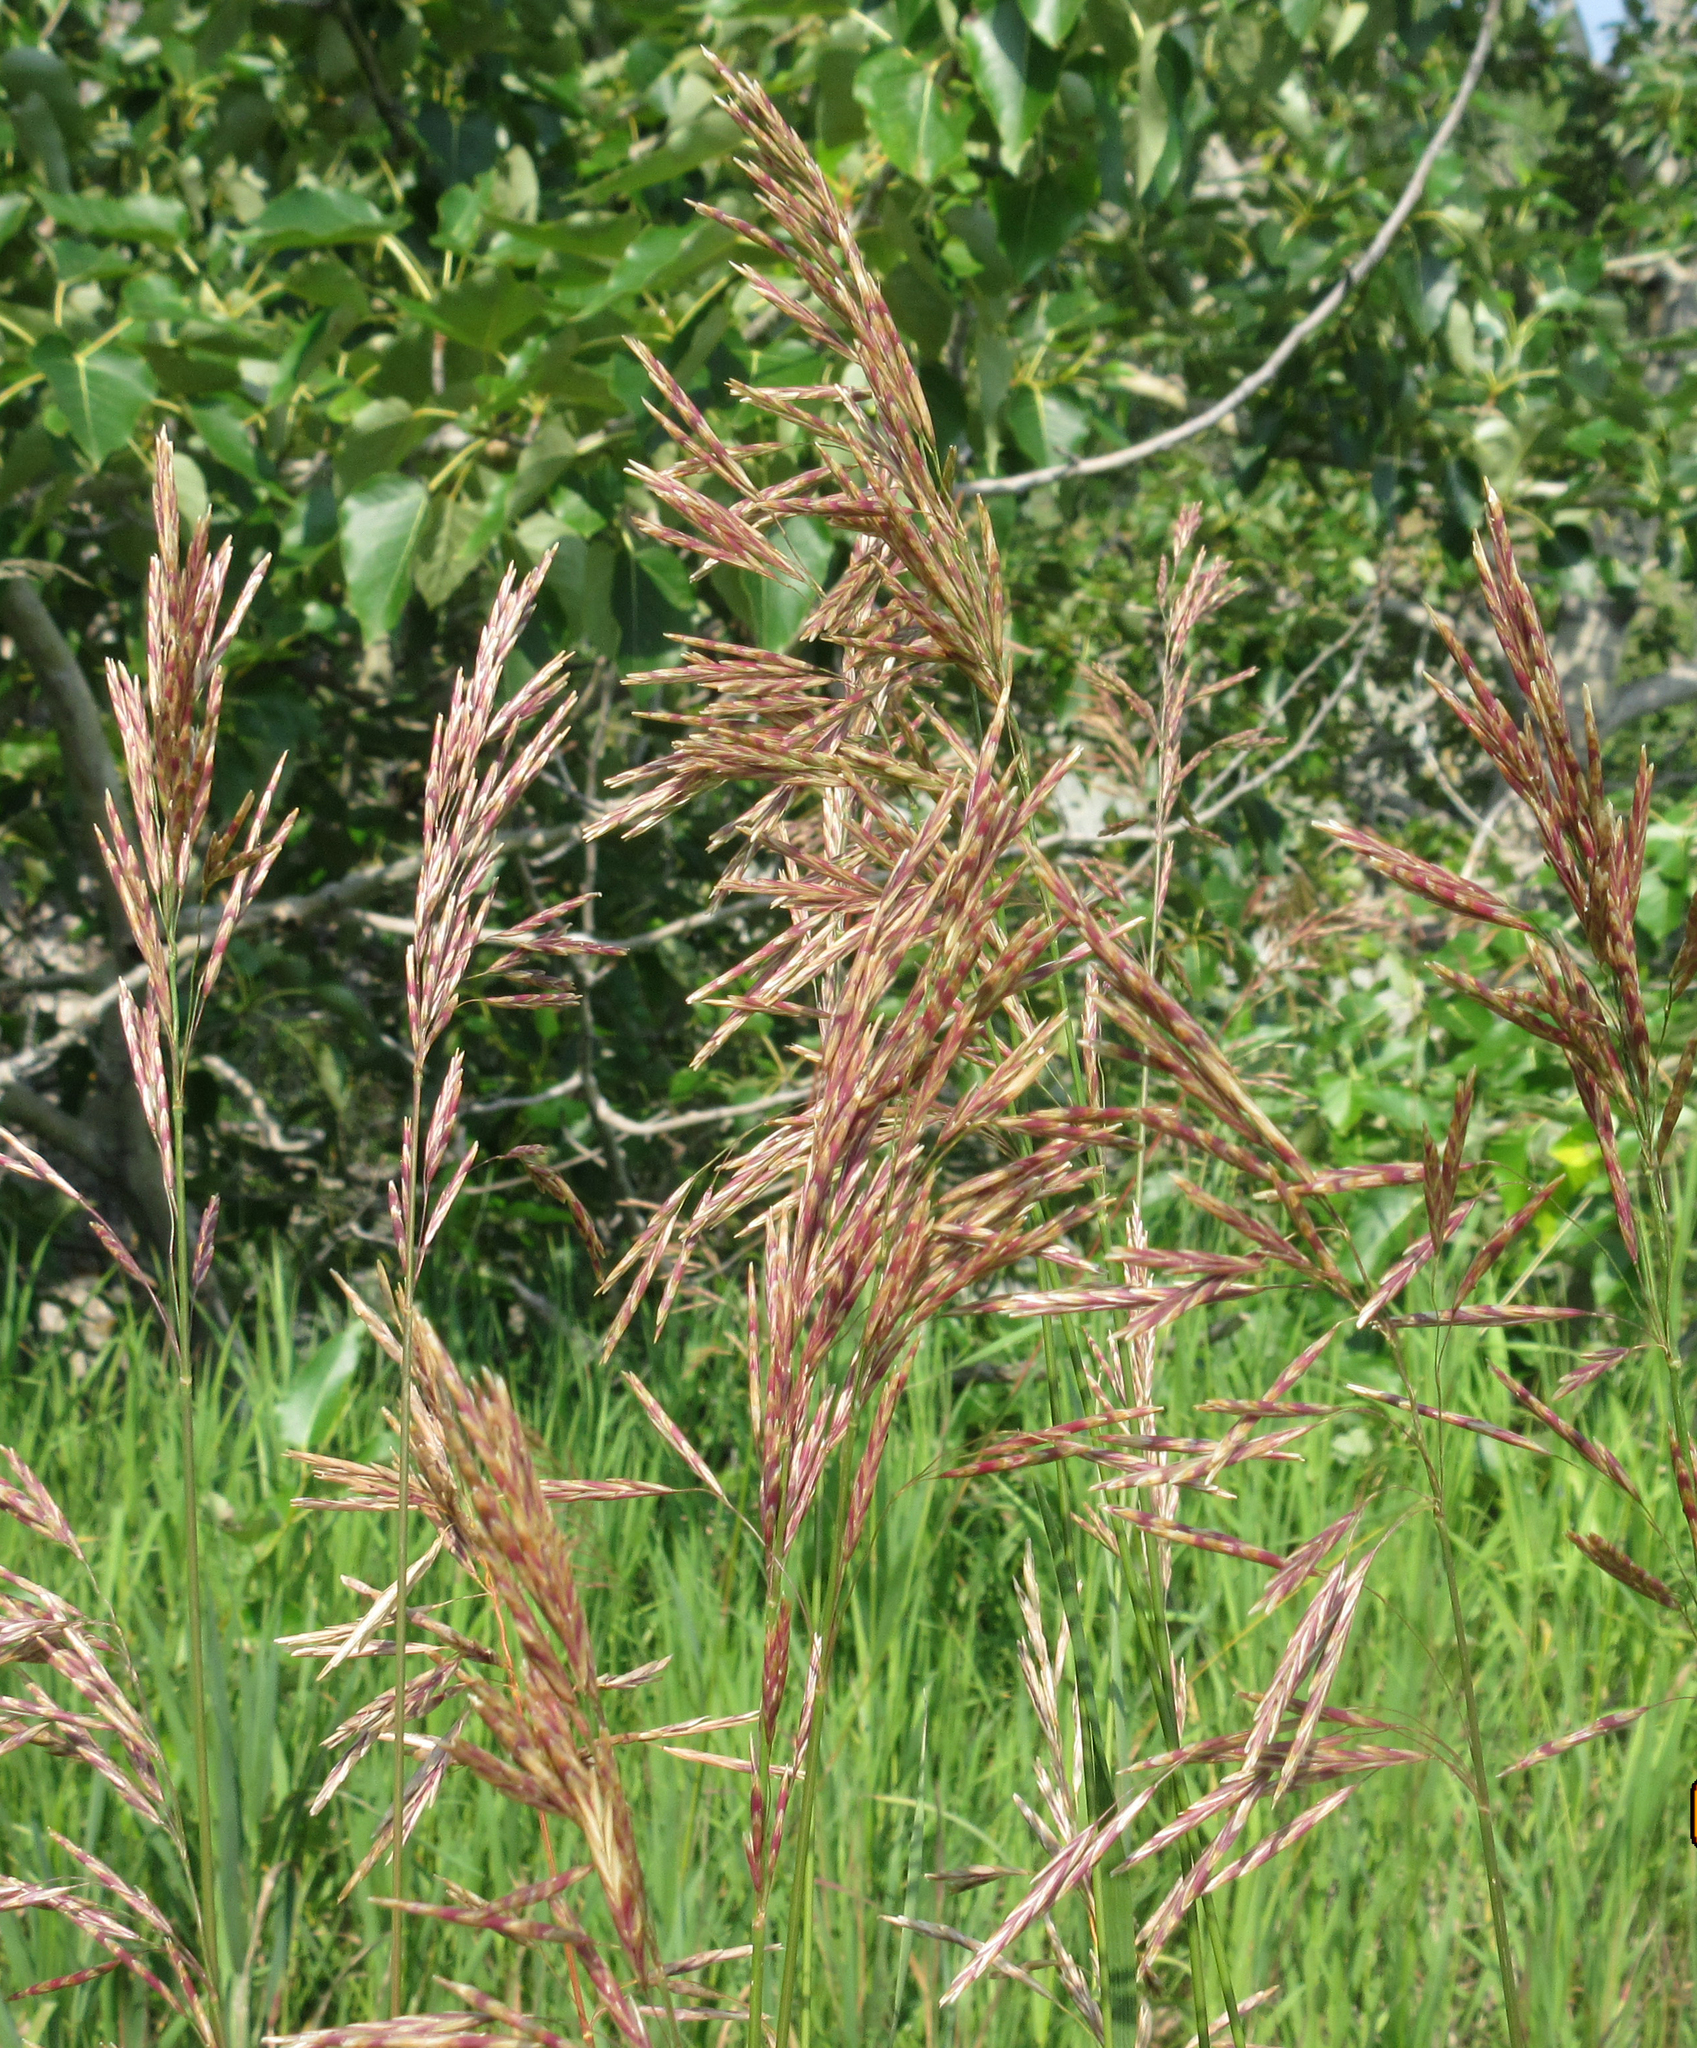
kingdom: Plantae
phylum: Tracheophyta
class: Liliopsida
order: Poales
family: Poaceae
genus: Bromus
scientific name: Bromus inermis
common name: Smooth brome
